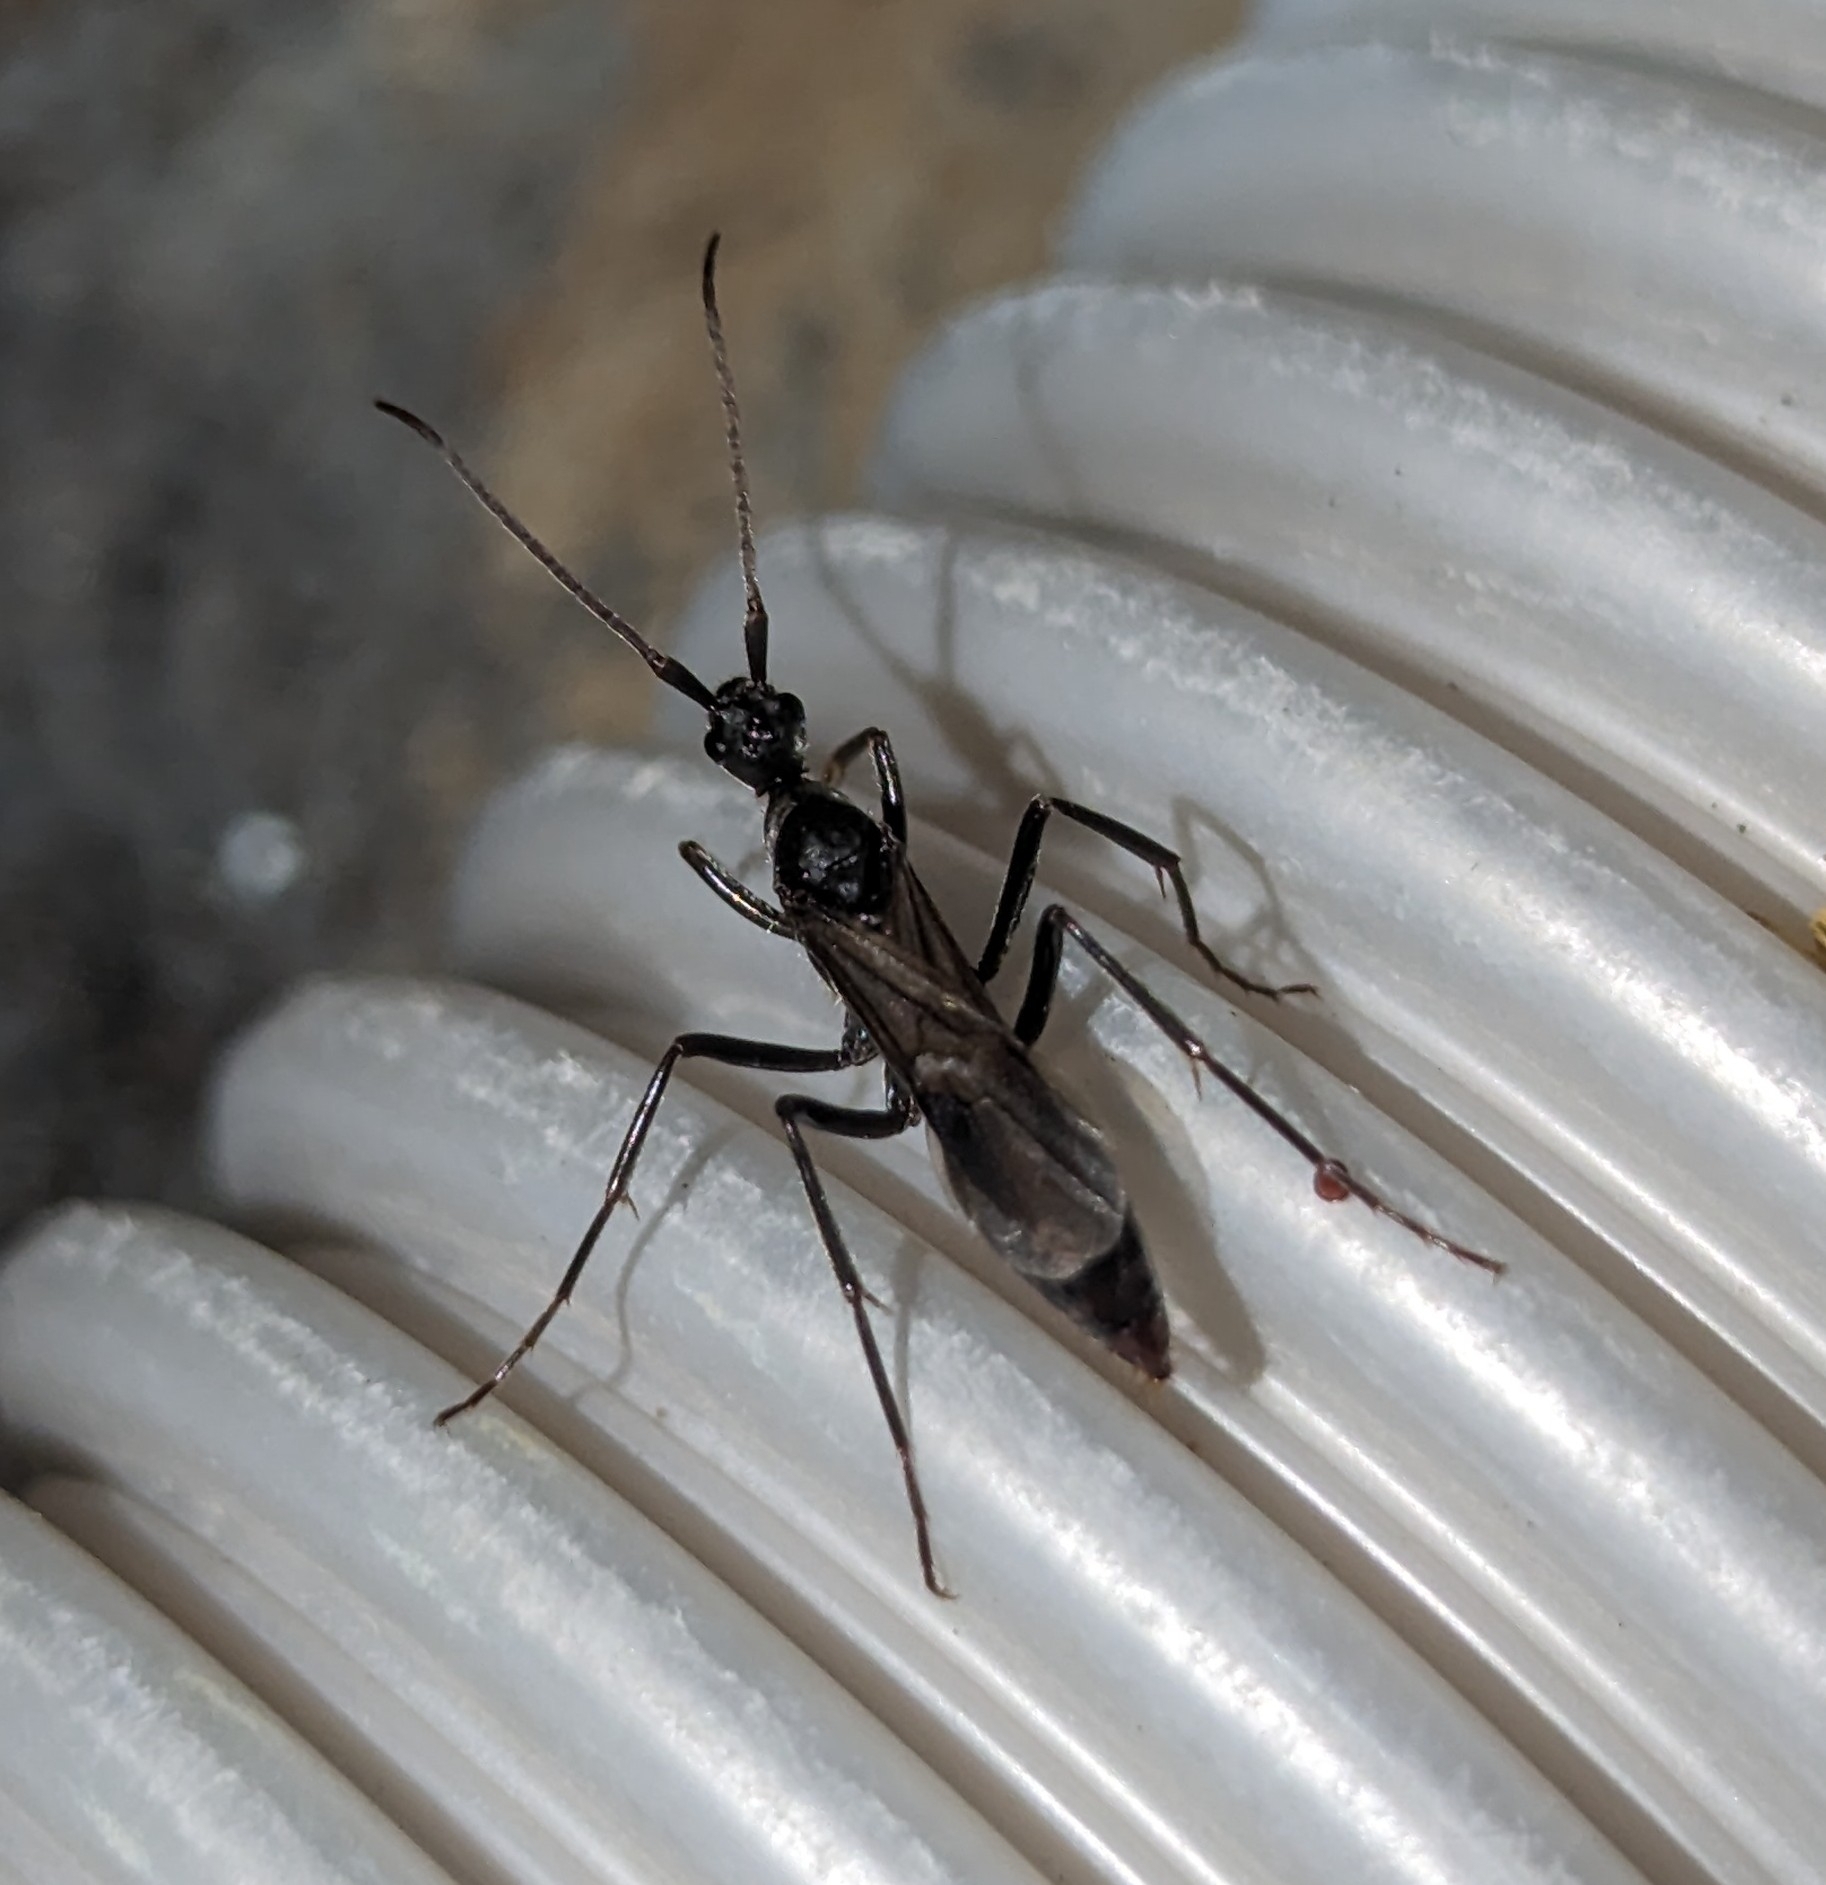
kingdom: Animalia
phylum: Arthropoda
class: Insecta
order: Hymenoptera
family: Formicidae
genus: Megaponera
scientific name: Megaponera analis
